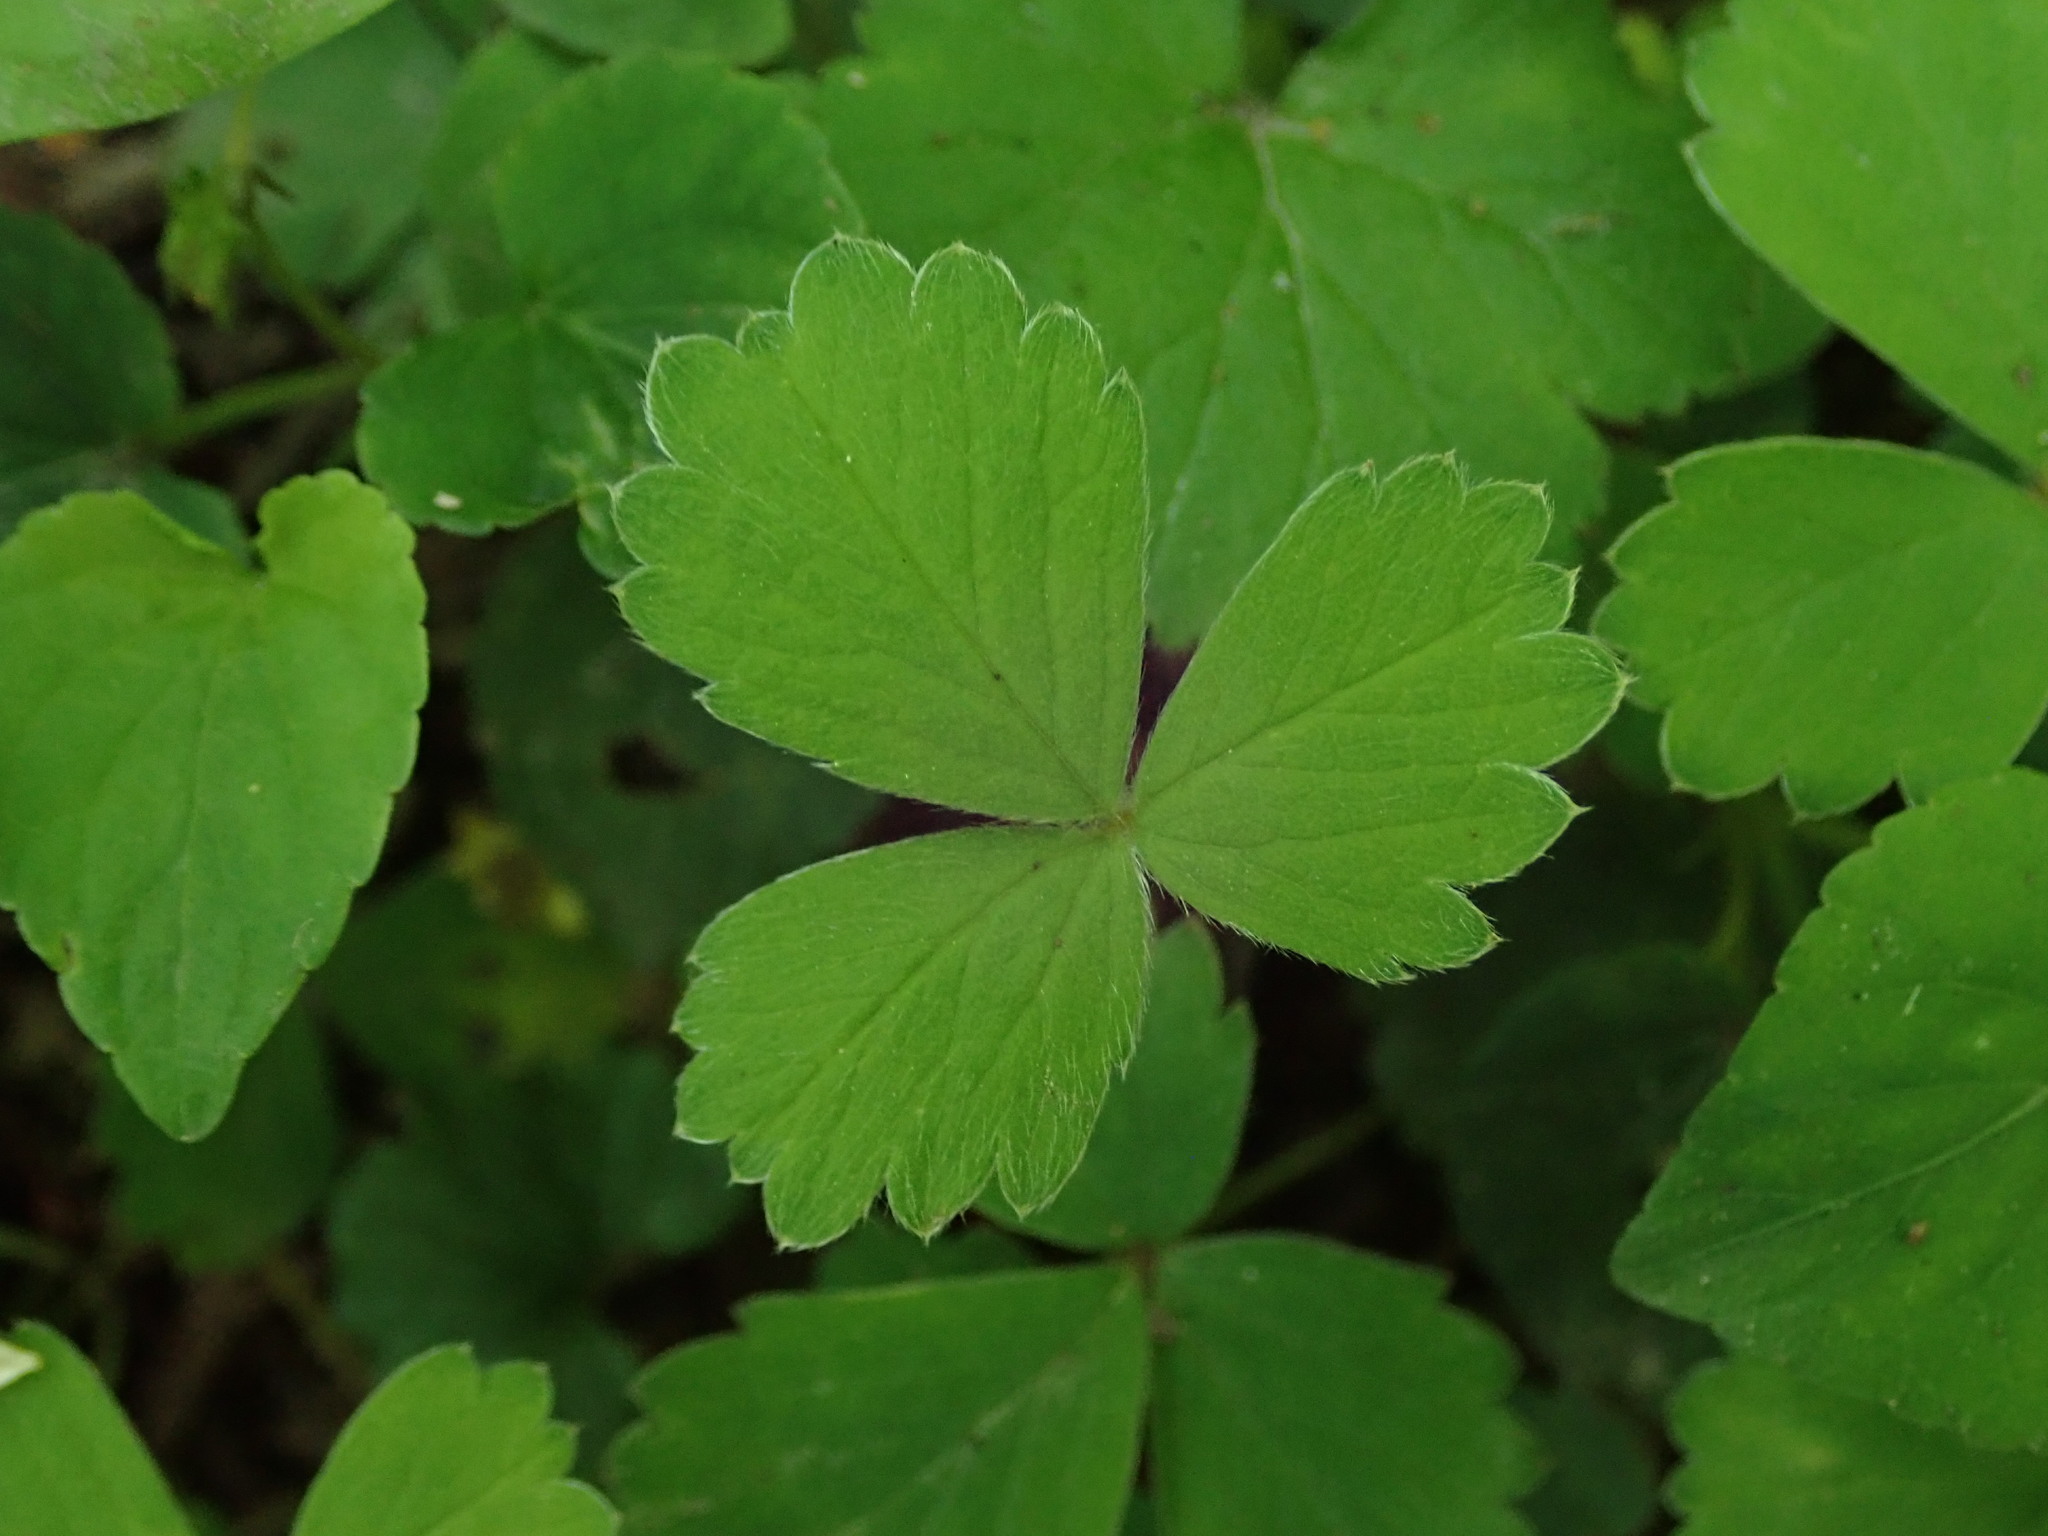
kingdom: Plantae
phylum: Tracheophyta
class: Magnoliopsida
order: Rosales
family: Rosaceae
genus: Potentilla
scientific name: Potentilla sterilis
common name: Barren strawberry
